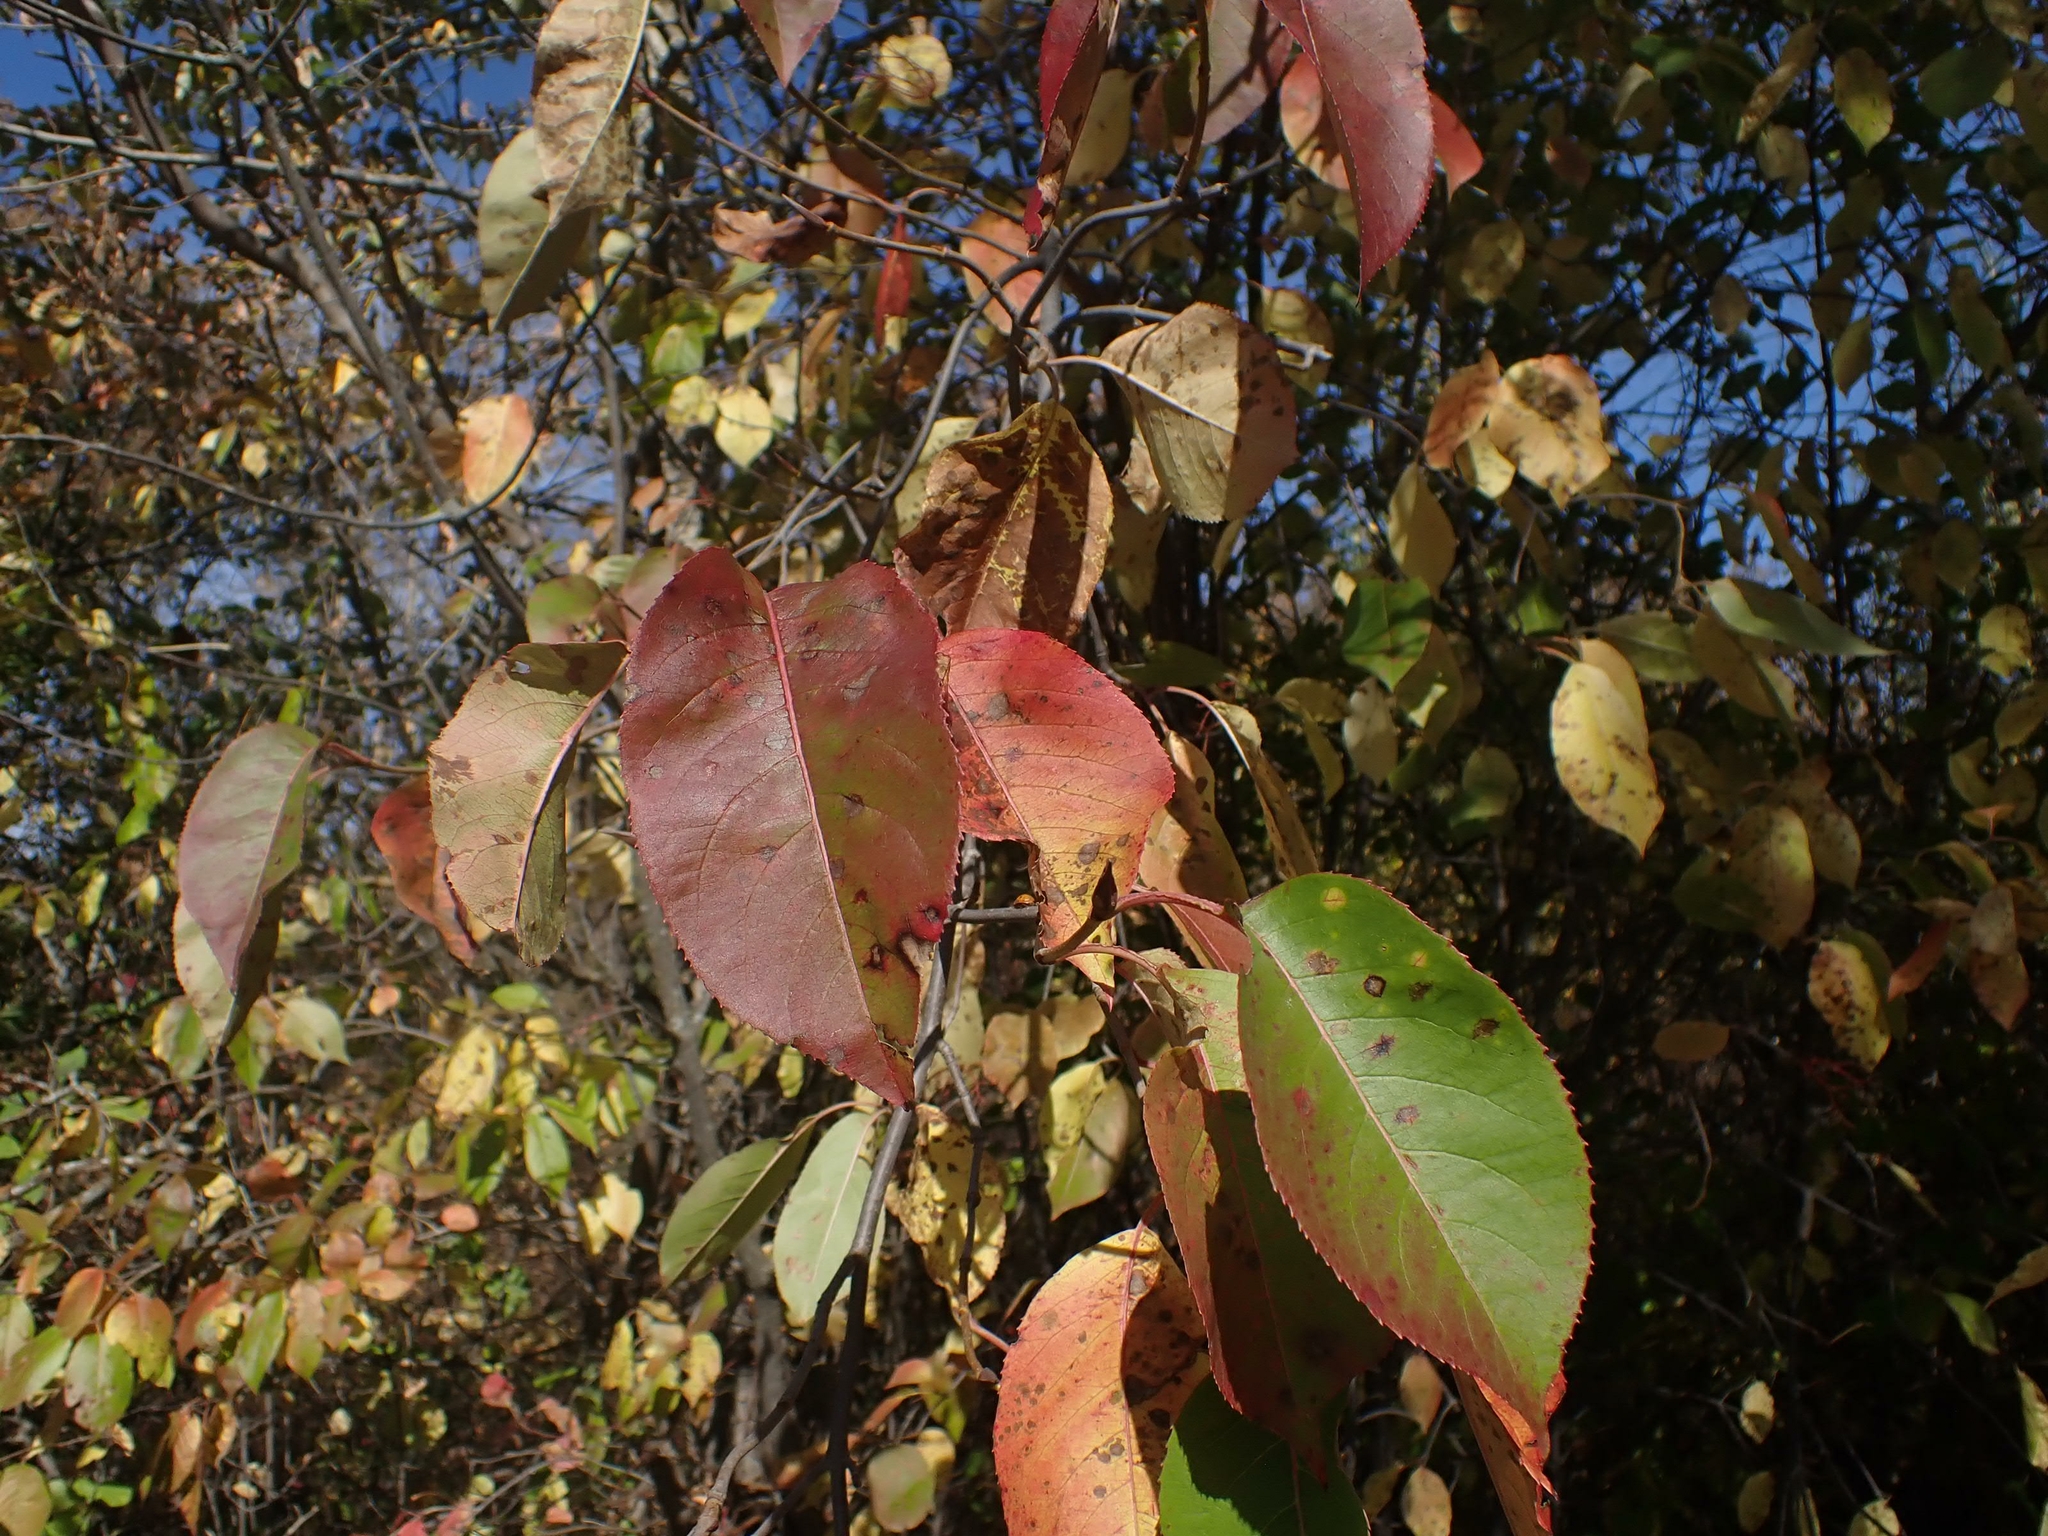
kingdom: Plantae
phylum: Tracheophyta
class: Magnoliopsida
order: Dipsacales
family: Viburnaceae
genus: Viburnum
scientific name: Viburnum lentago
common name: Black haw
